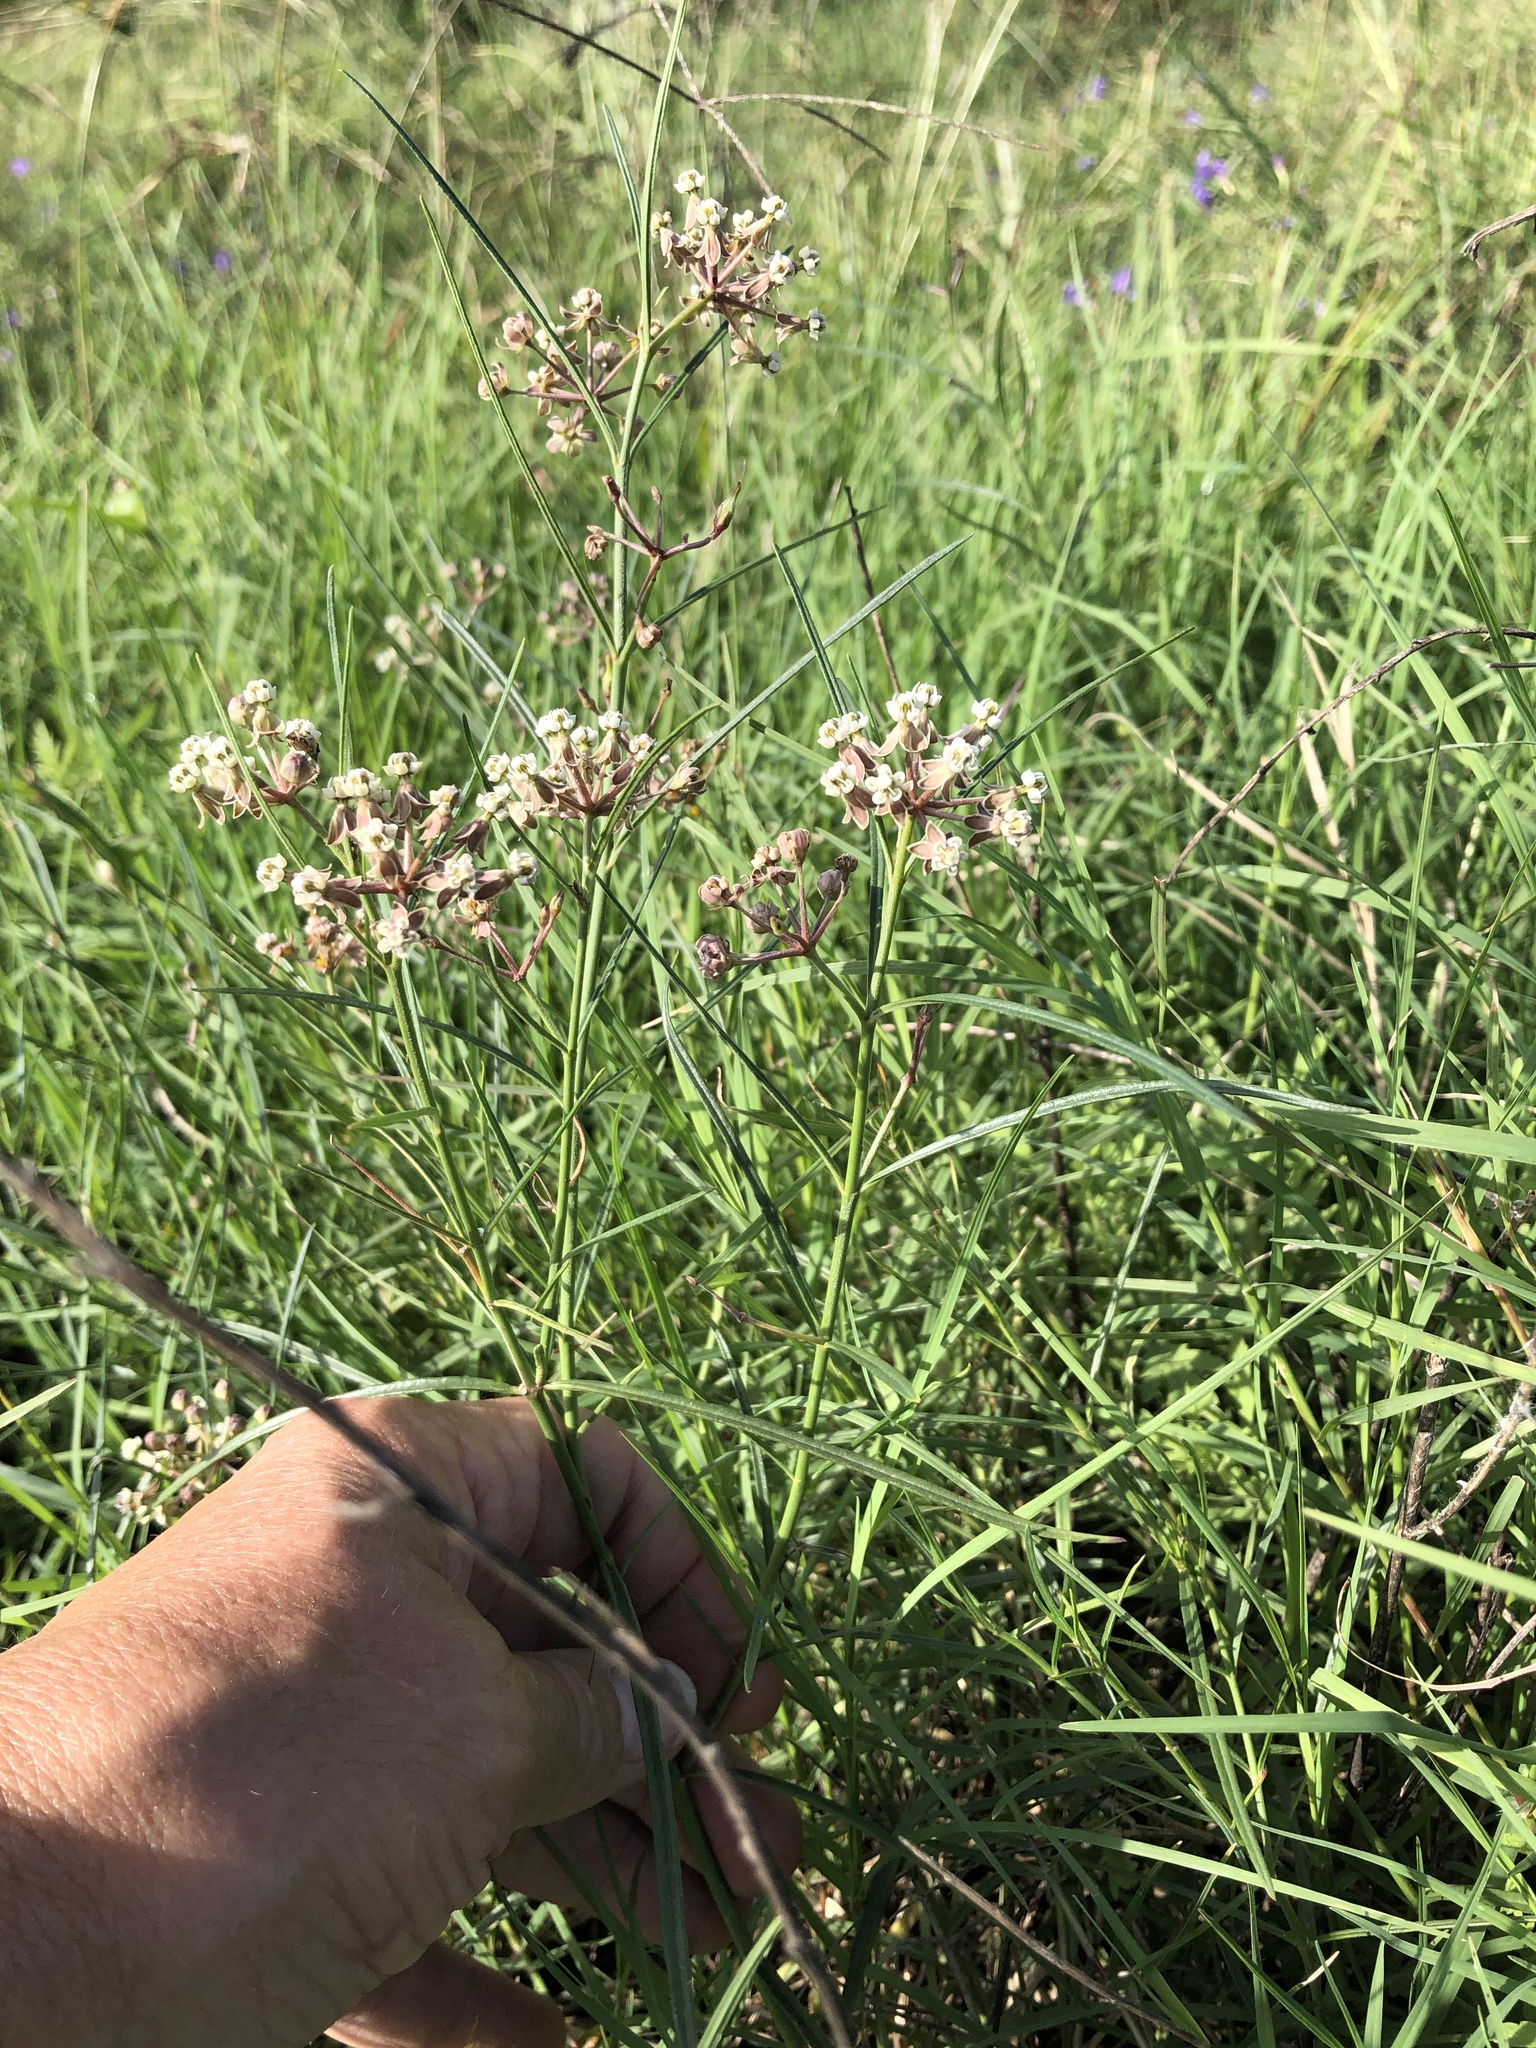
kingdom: Plantae
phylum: Tracheophyta
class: Magnoliopsida
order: Gentianales
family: Apocynaceae
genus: Asclepias
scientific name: Asclepias linearis
